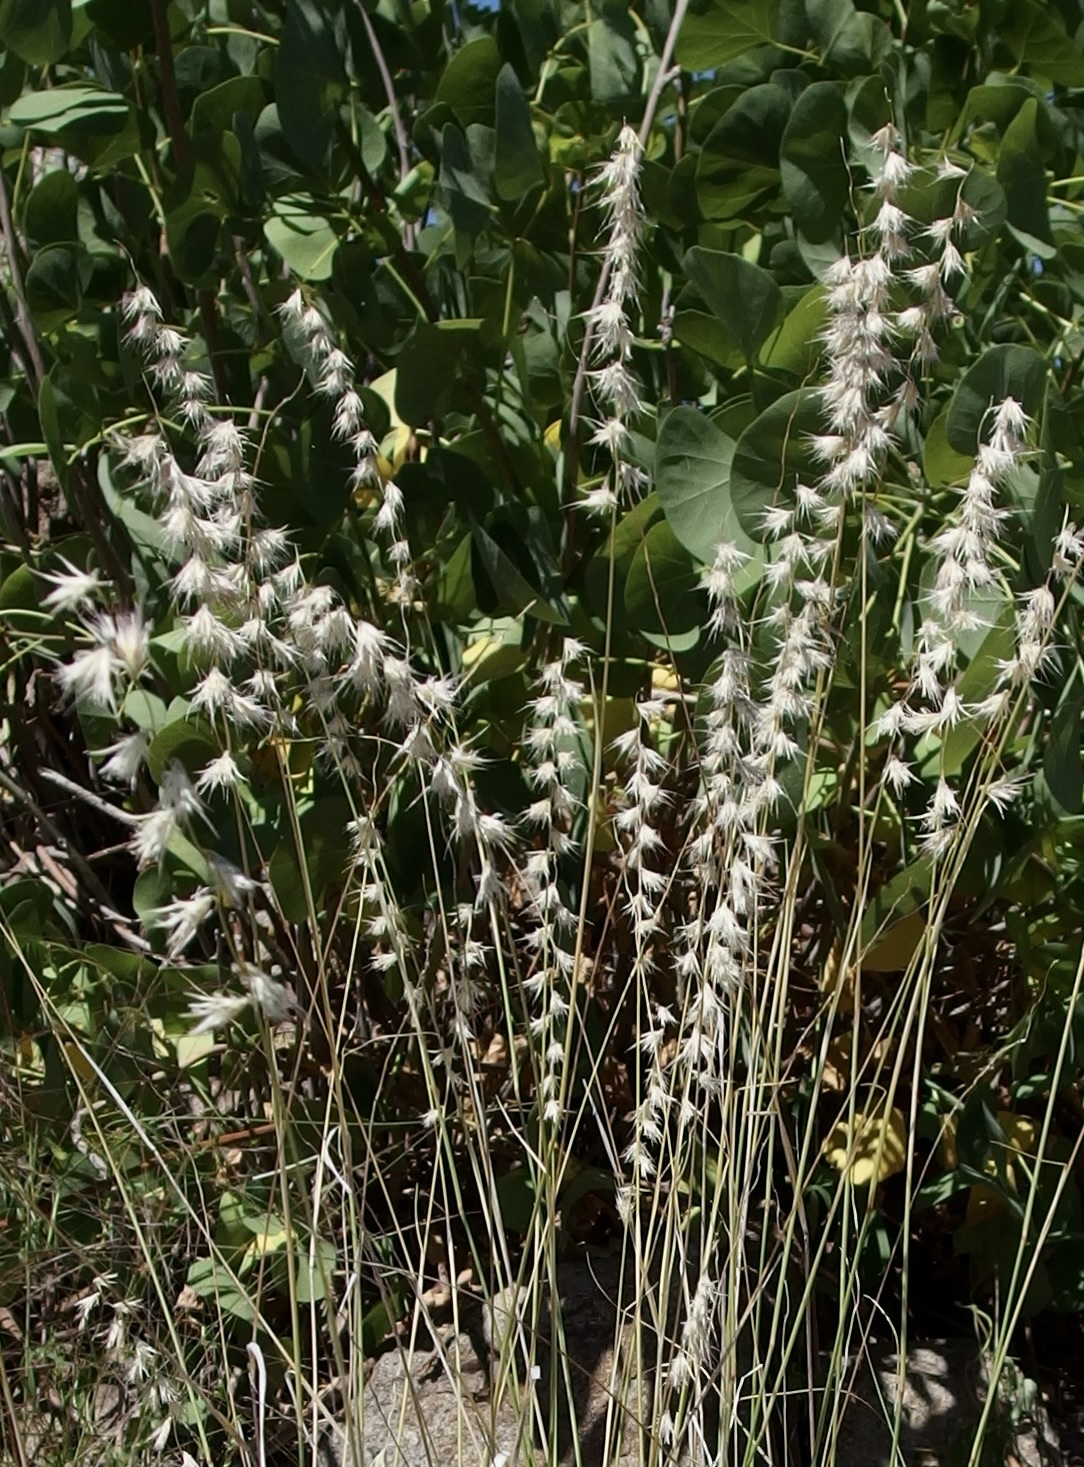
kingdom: Plantae
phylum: Tracheophyta
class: Liliopsida
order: Poales
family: Poaceae
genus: Bouteloua
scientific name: Bouteloua eludens
